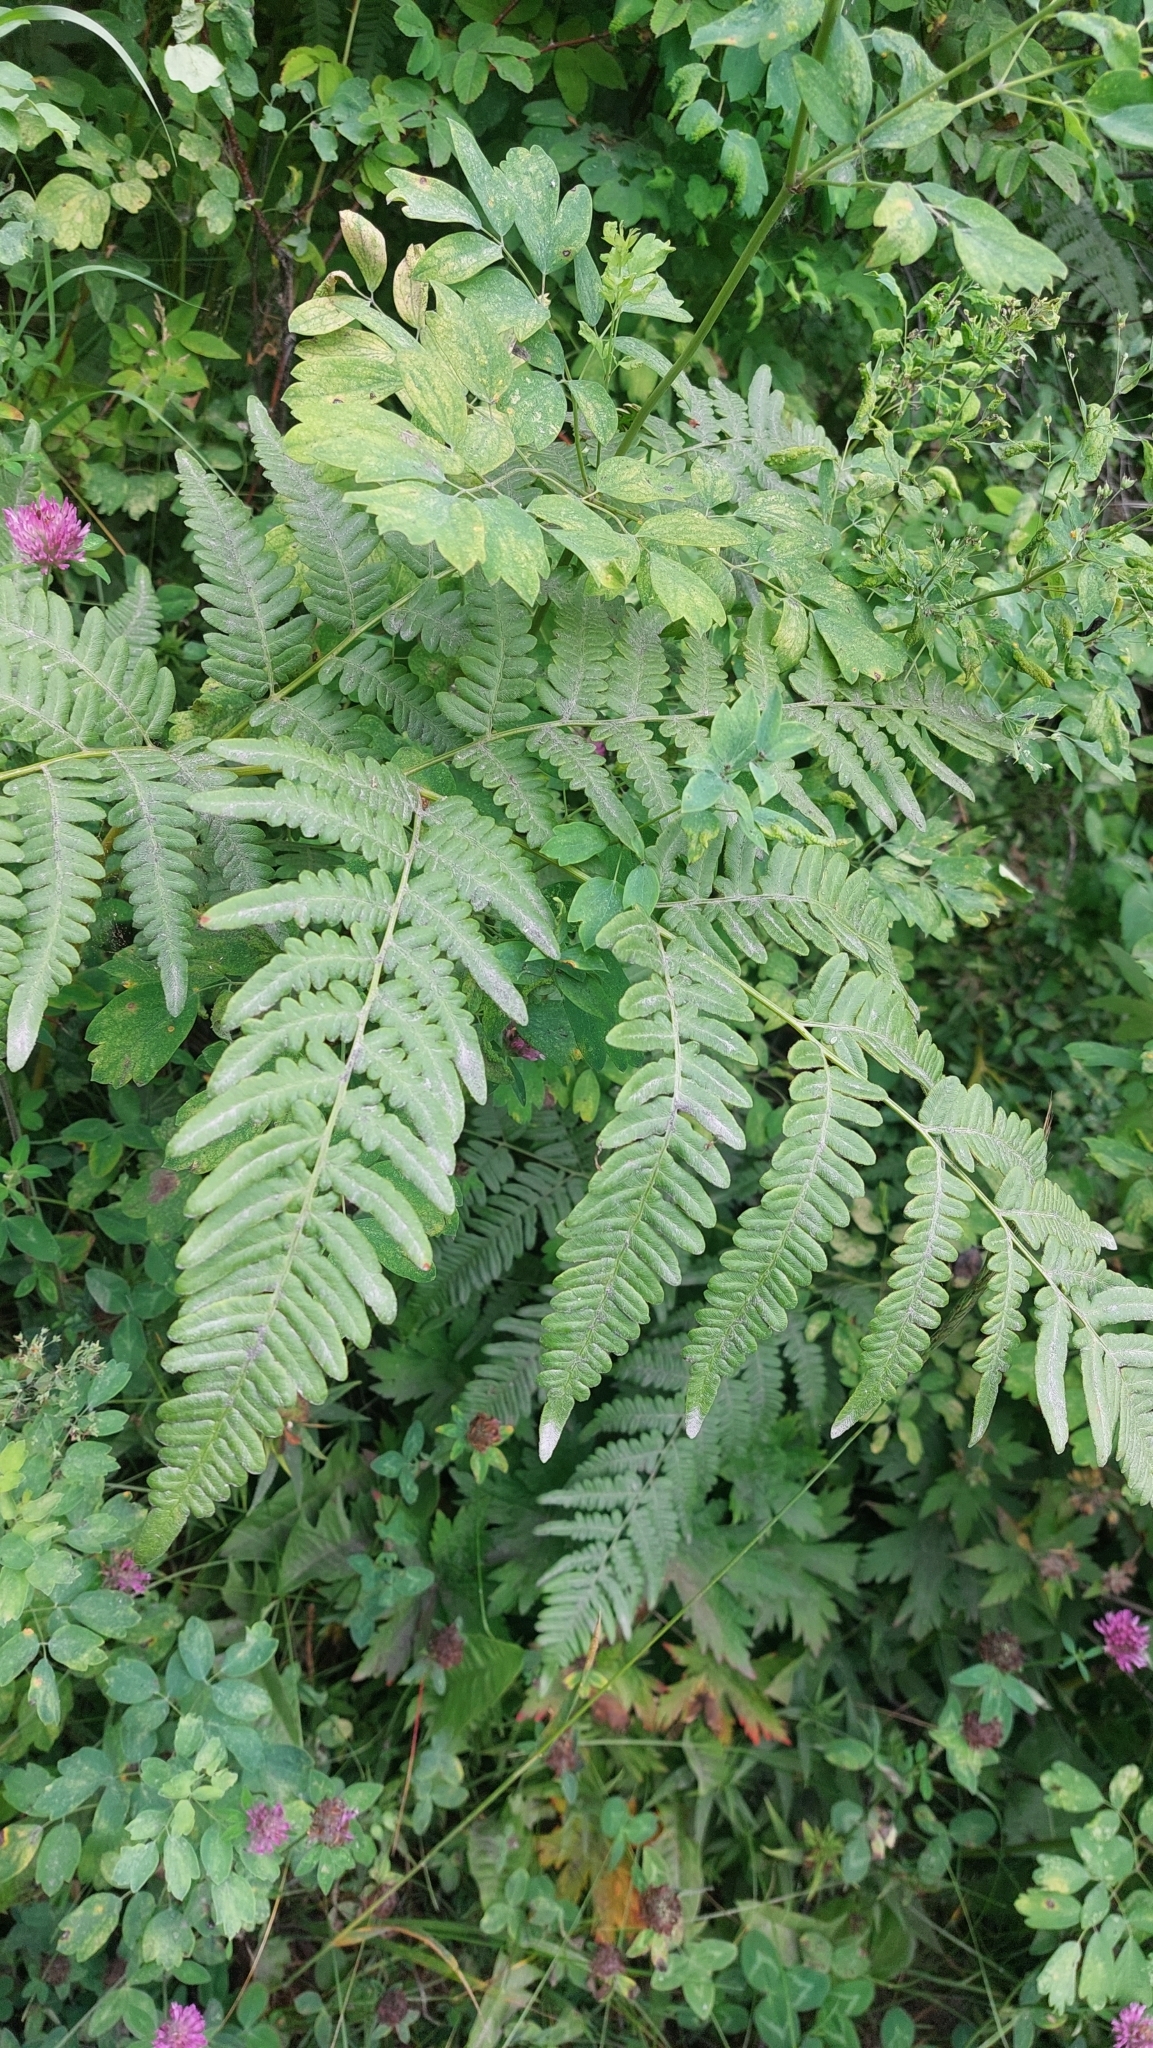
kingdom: Plantae
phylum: Tracheophyta
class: Polypodiopsida
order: Polypodiales
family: Dennstaedtiaceae
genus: Pteridium
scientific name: Pteridium aquilinum
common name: Bracken
